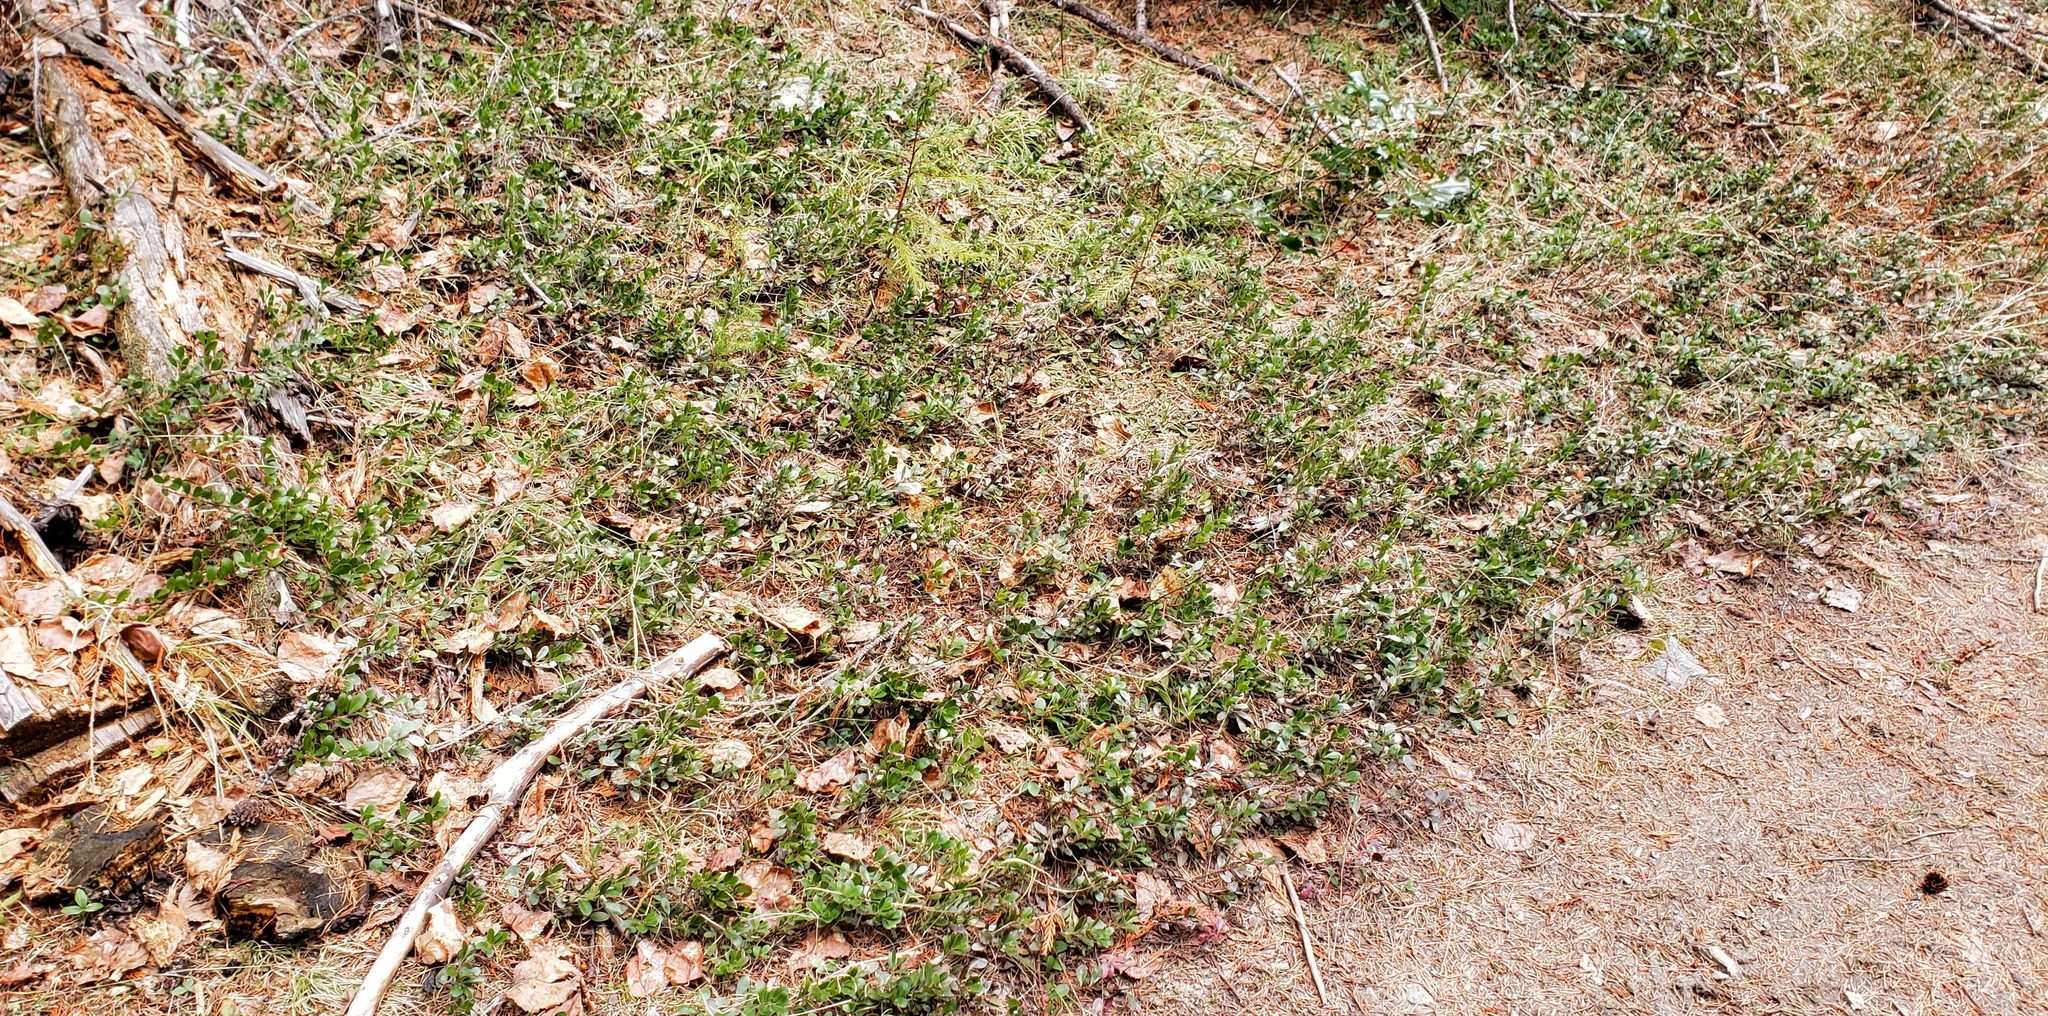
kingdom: Plantae
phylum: Tracheophyta
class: Magnoliopsida
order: Ericales
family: Ericaceae
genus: Arctostaphylos
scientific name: Arctostaphylos uva-ursi
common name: Bearberry
